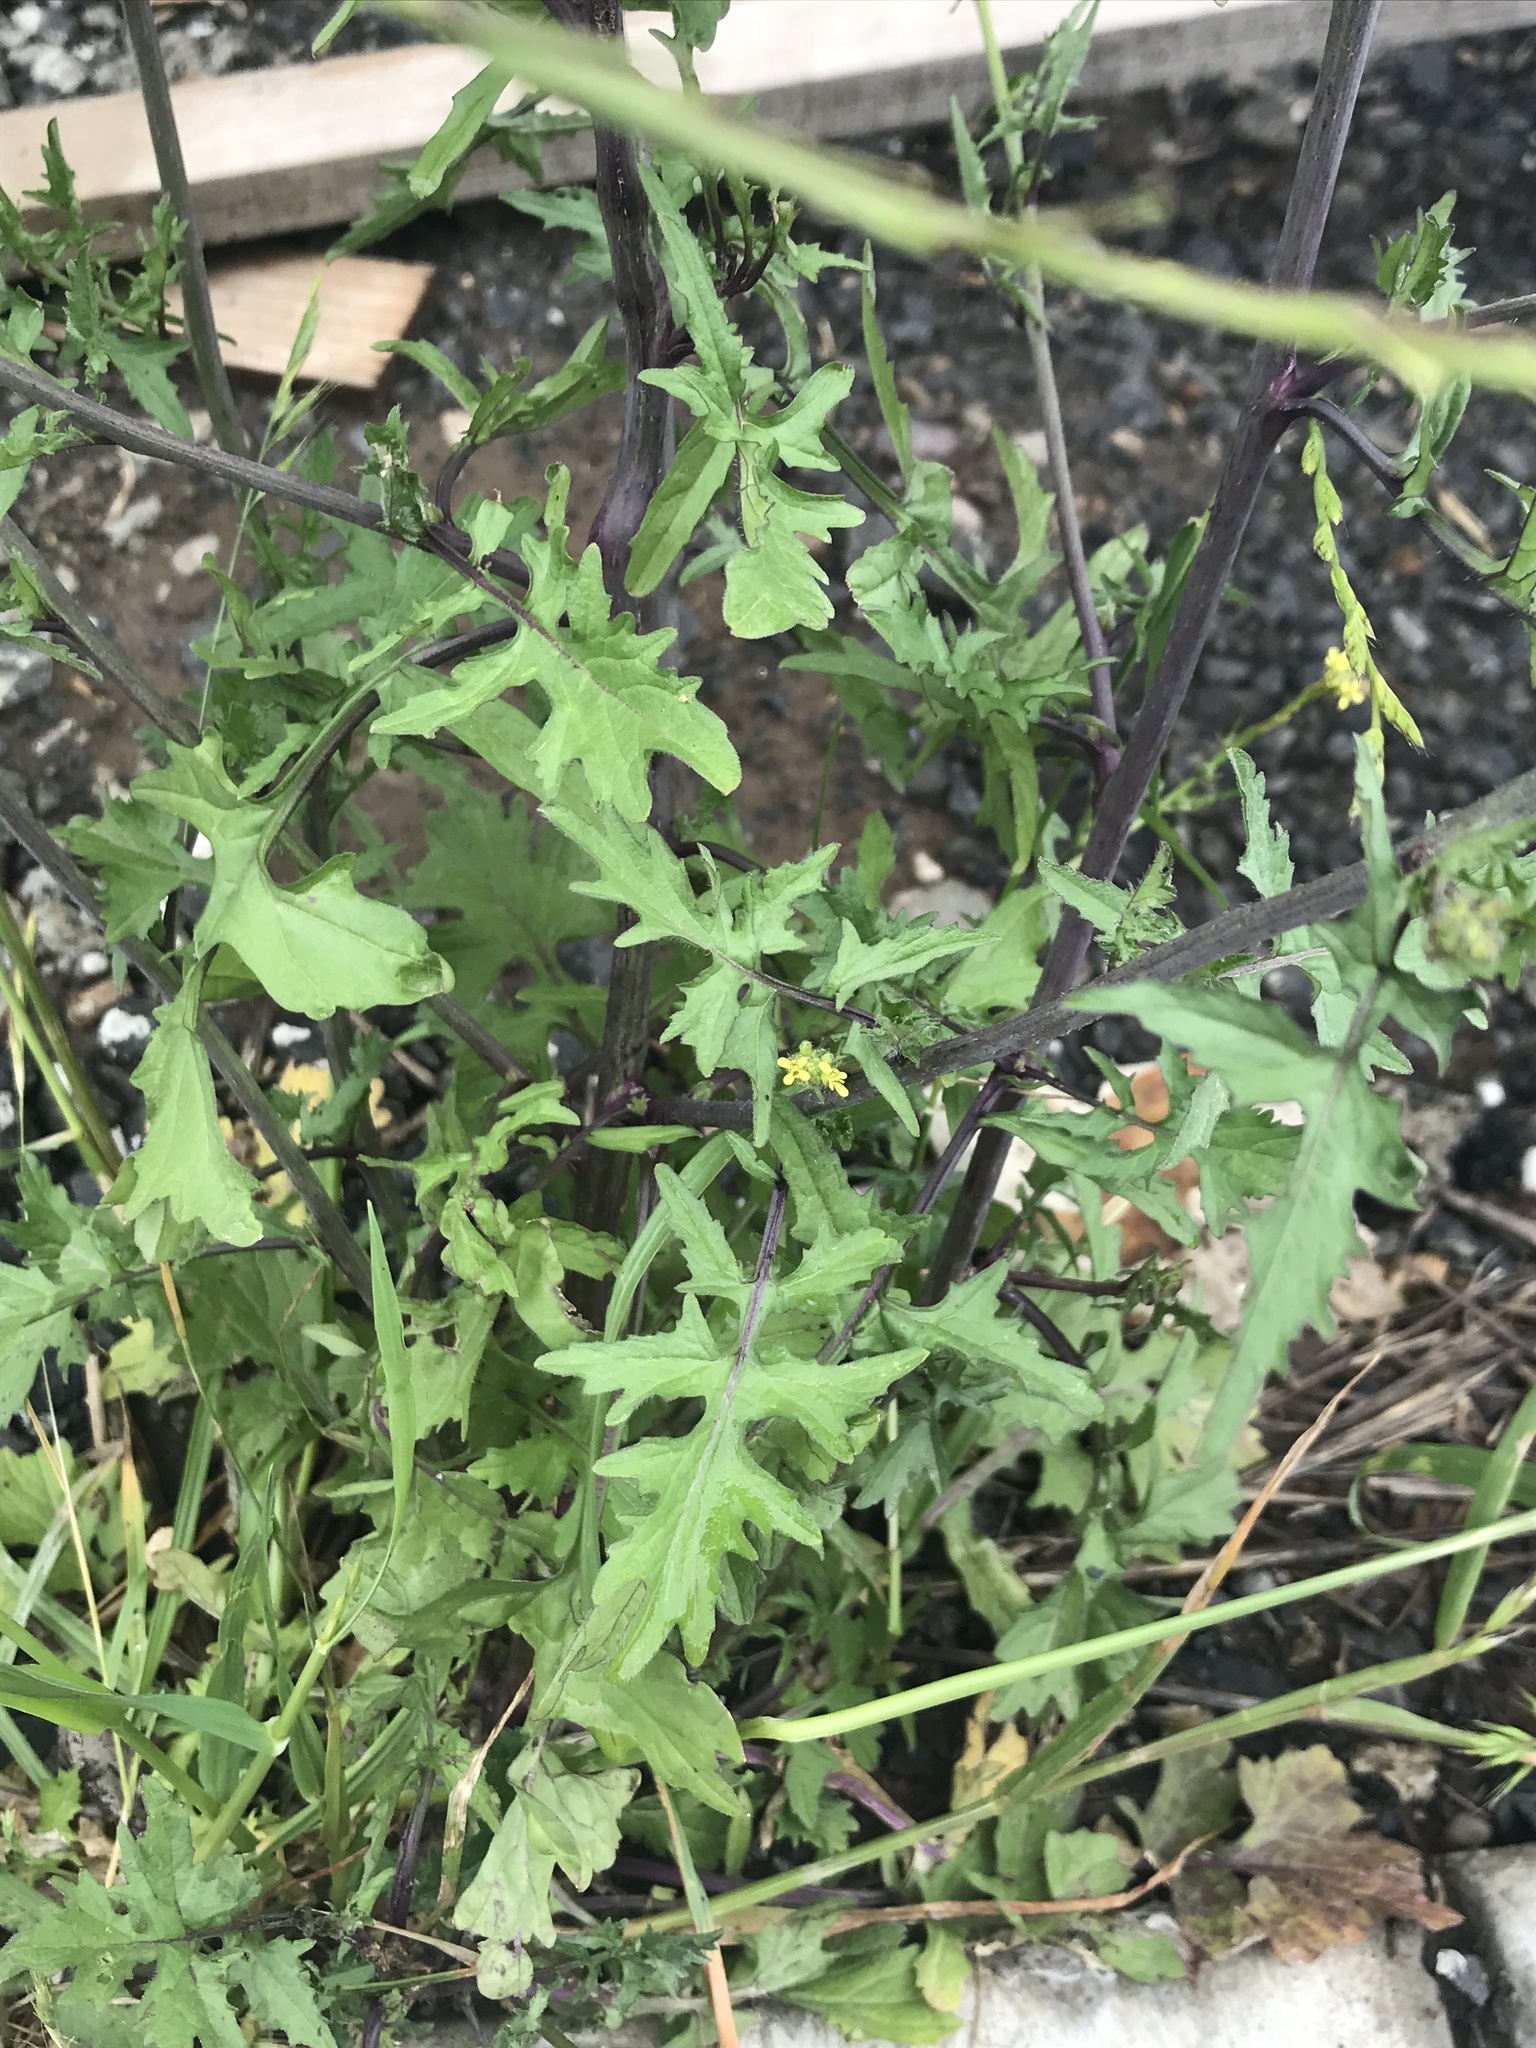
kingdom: Plantae
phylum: Tracheophyta
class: Magnoliopsida
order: Brassicales
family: Brassicaceae
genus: Sisymbrium
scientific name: Sisymbrium officinale
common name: Hedge mustard
